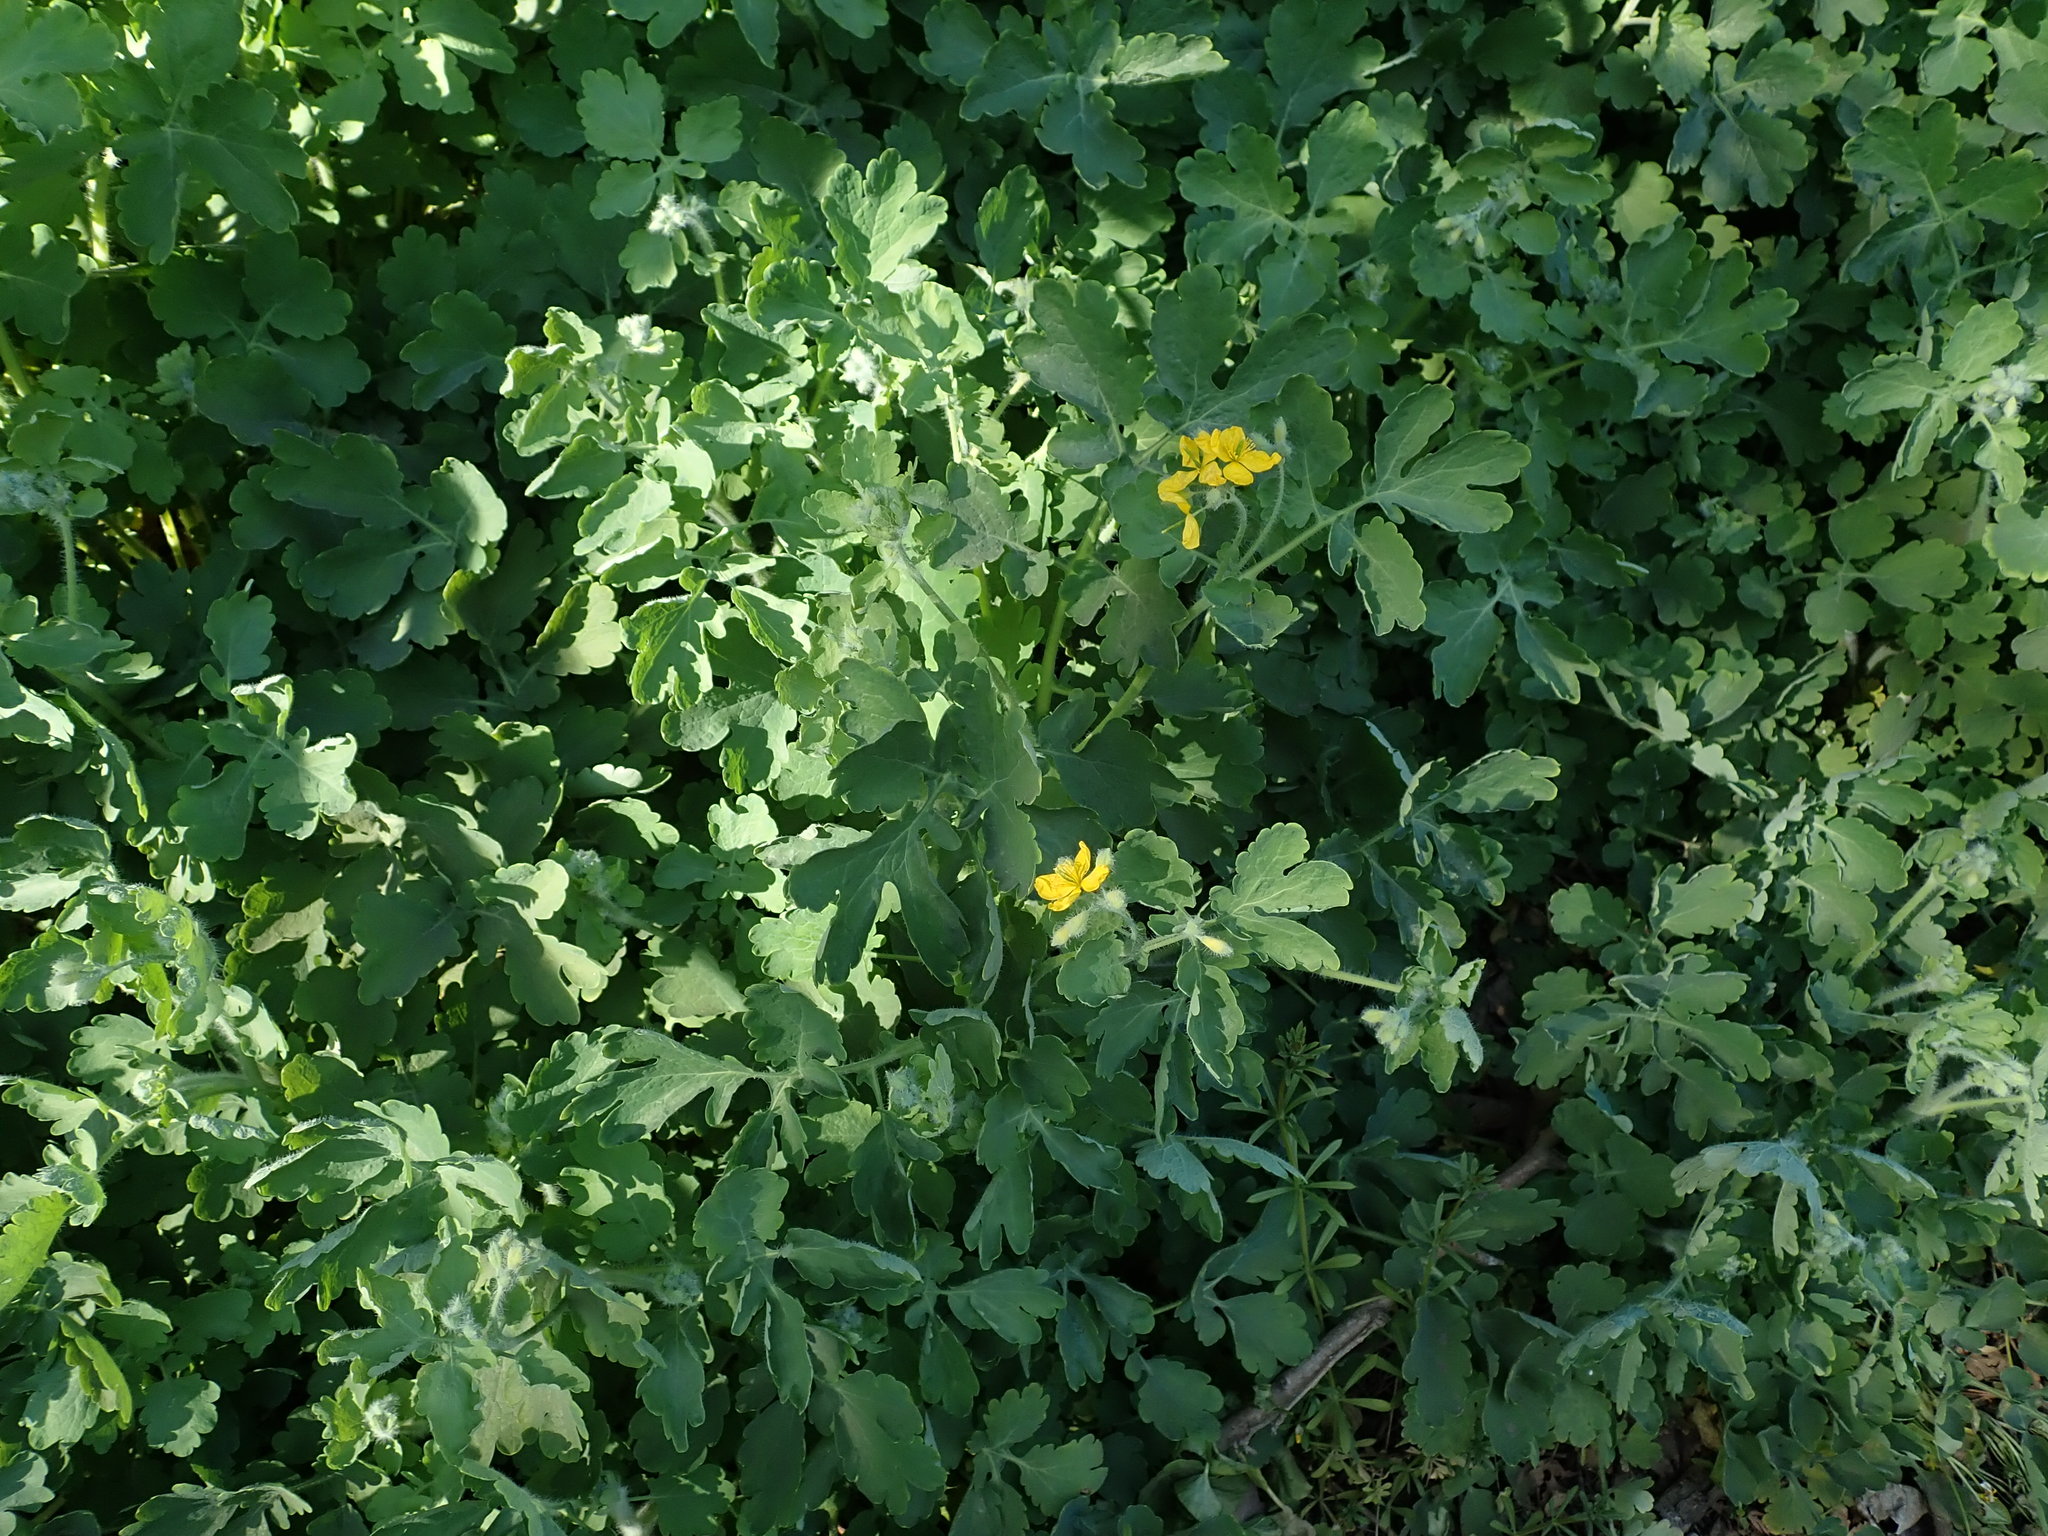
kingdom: Plantae
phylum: Tracheophyta
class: Magnoliopsida
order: Ranunculales
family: Papaveraceae
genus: Chelidonium
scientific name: Chelidonium majus
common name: Greater celandine
